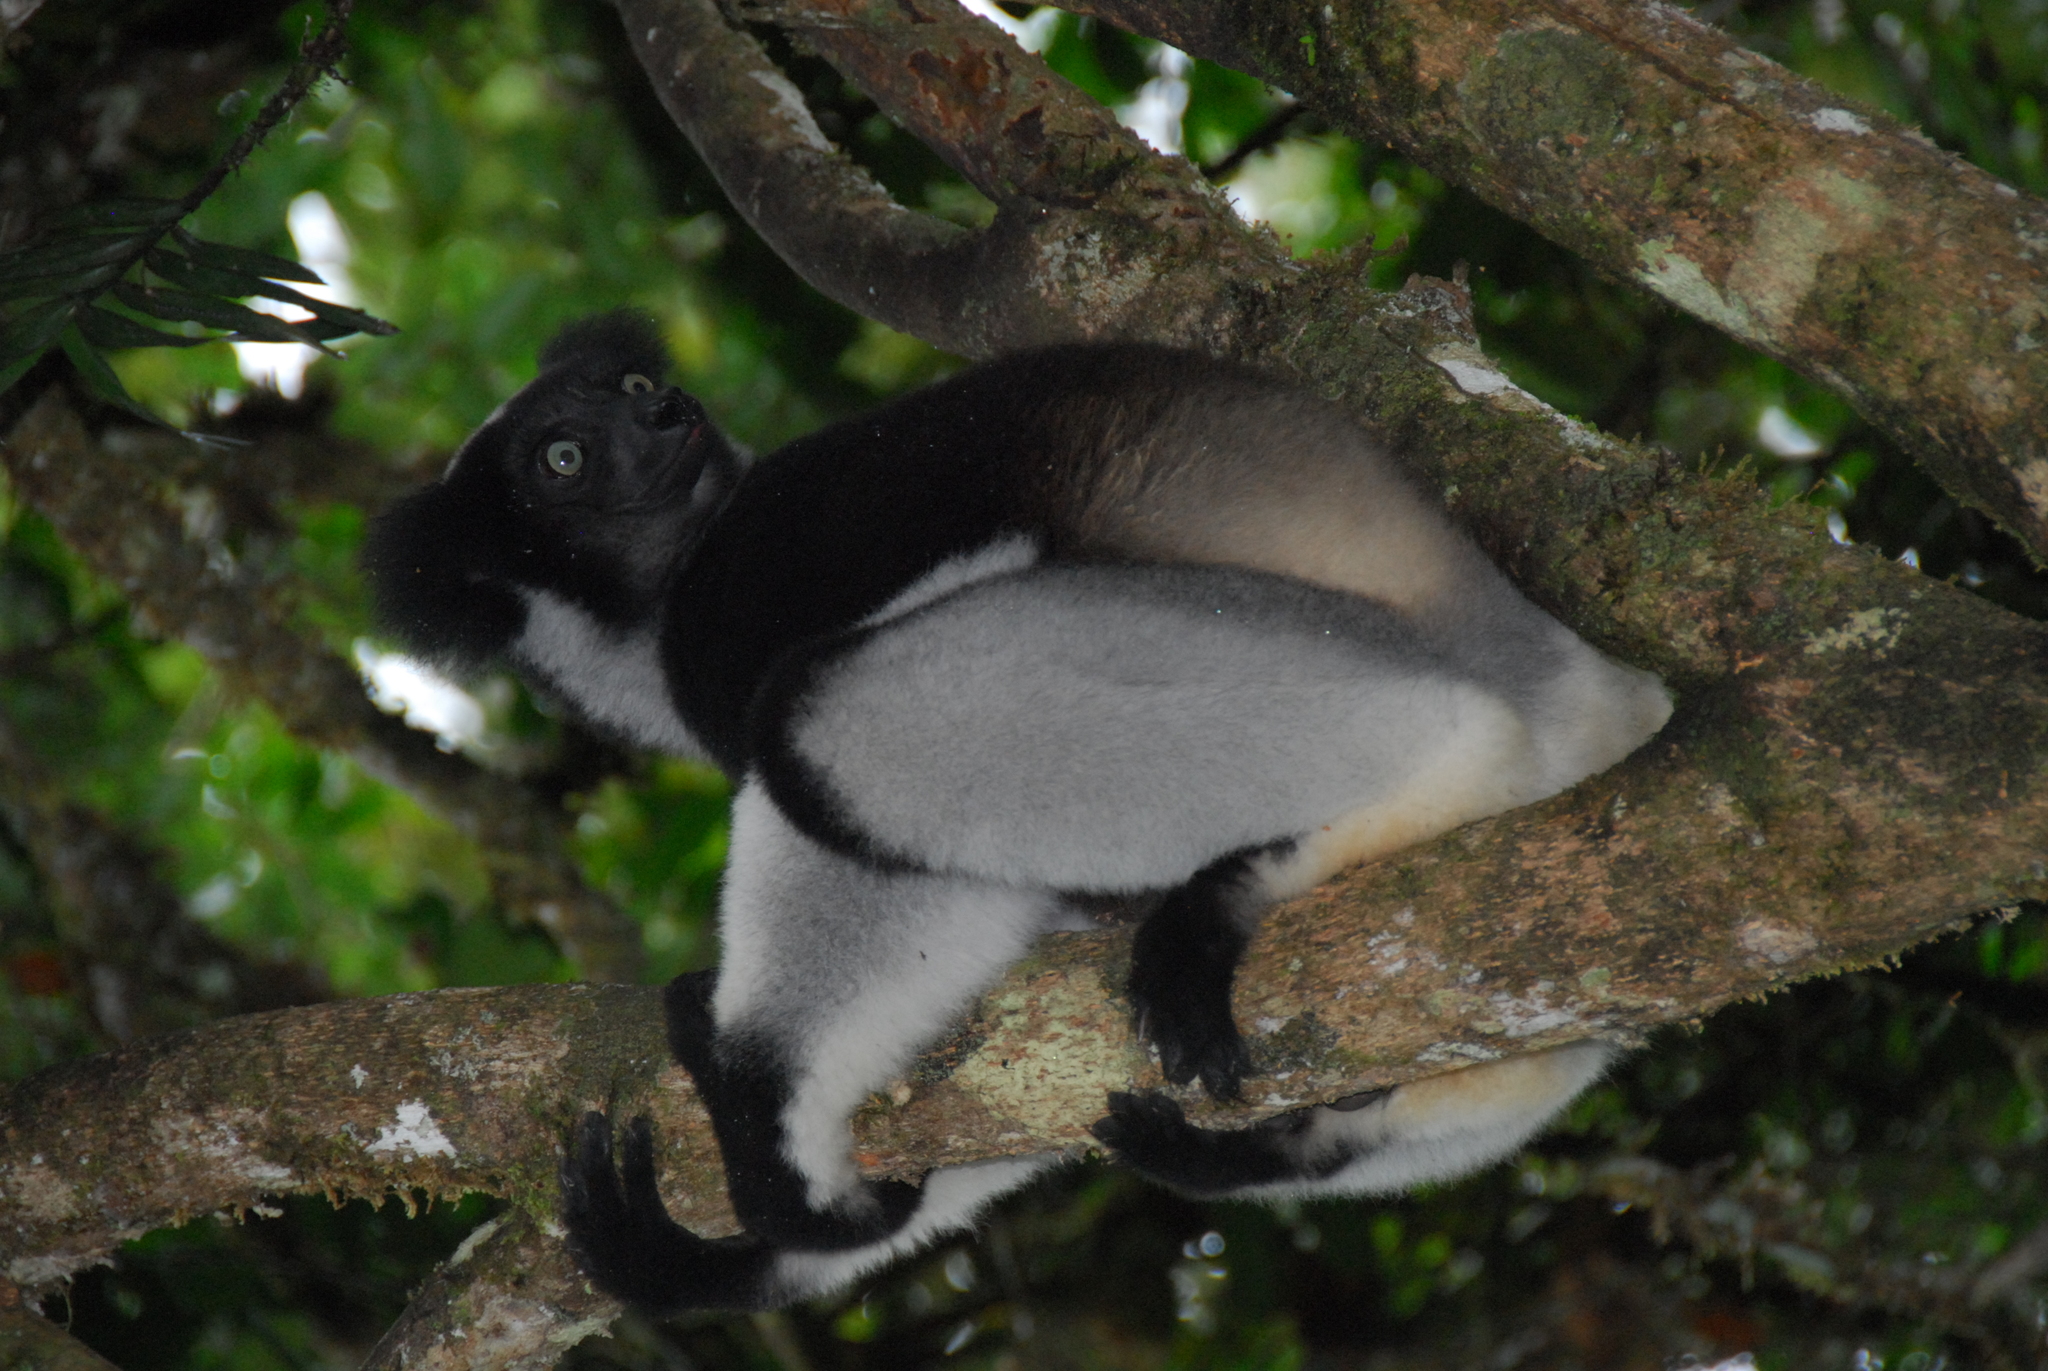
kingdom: Animalia
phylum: Chordata
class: Mammalia
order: Primates
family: Indriidae
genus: Indri
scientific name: Indri indri
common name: Indri
